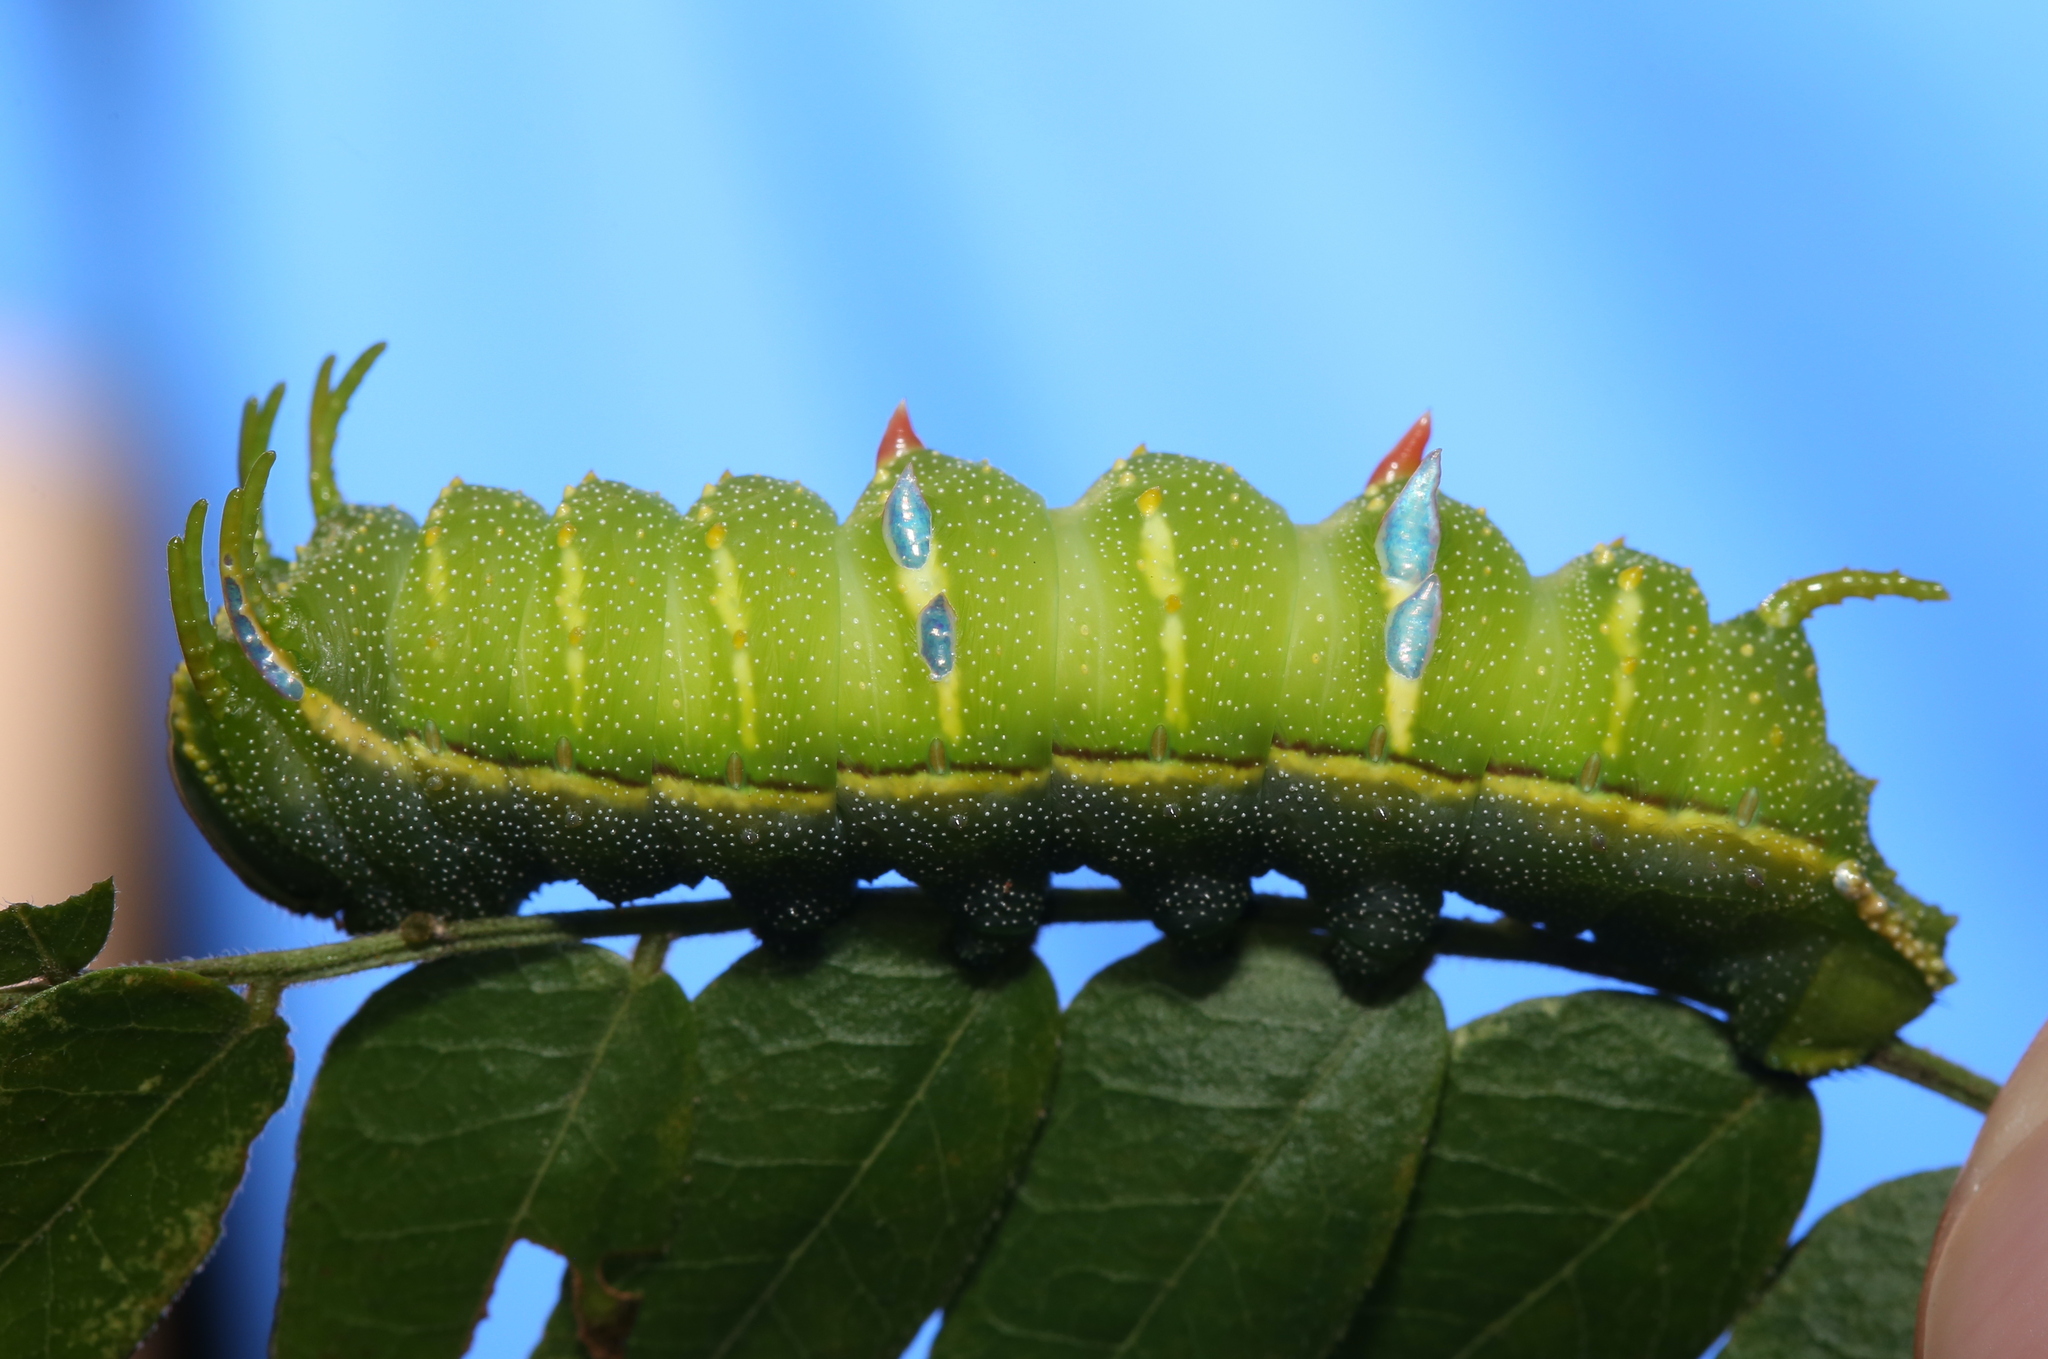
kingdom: Animalia
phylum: Arthropoda
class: Insecta
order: Lepidoptera
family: Saturniidae
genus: Syssphinx
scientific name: Syssphinx bisecta
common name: Bisected honey locust moth
